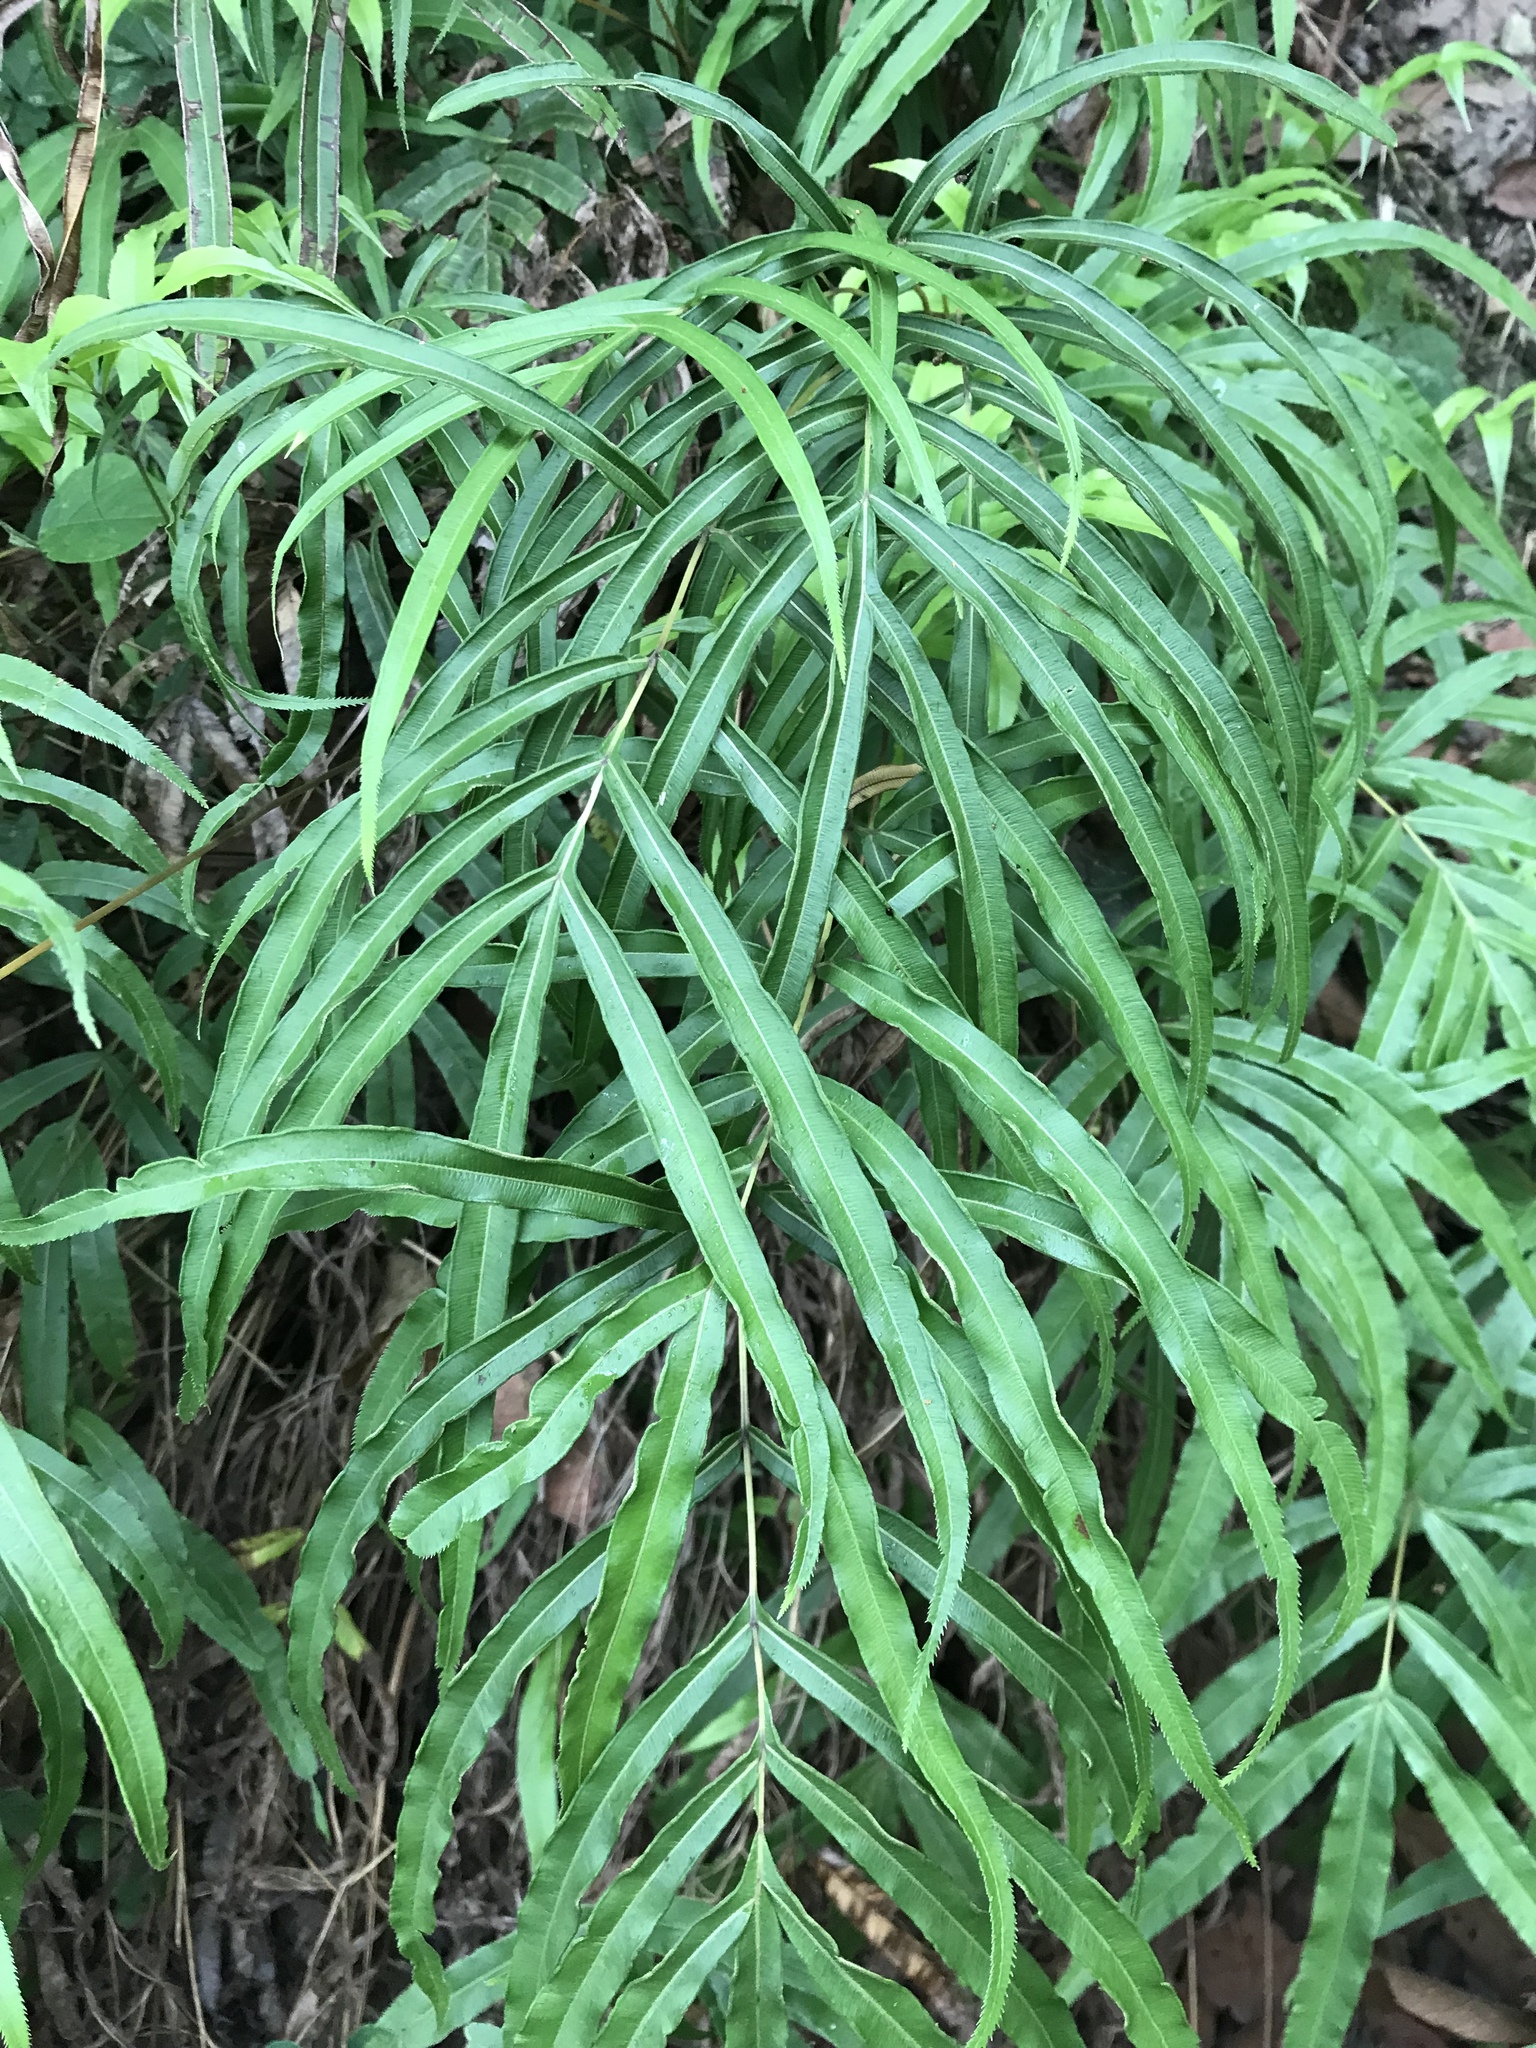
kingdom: Plantae
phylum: Tracheophyta
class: Polypodiopsida
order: Polypodiales
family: Pteridaceae
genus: Pteris
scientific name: Pteris cretica
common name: Ribbon fern
